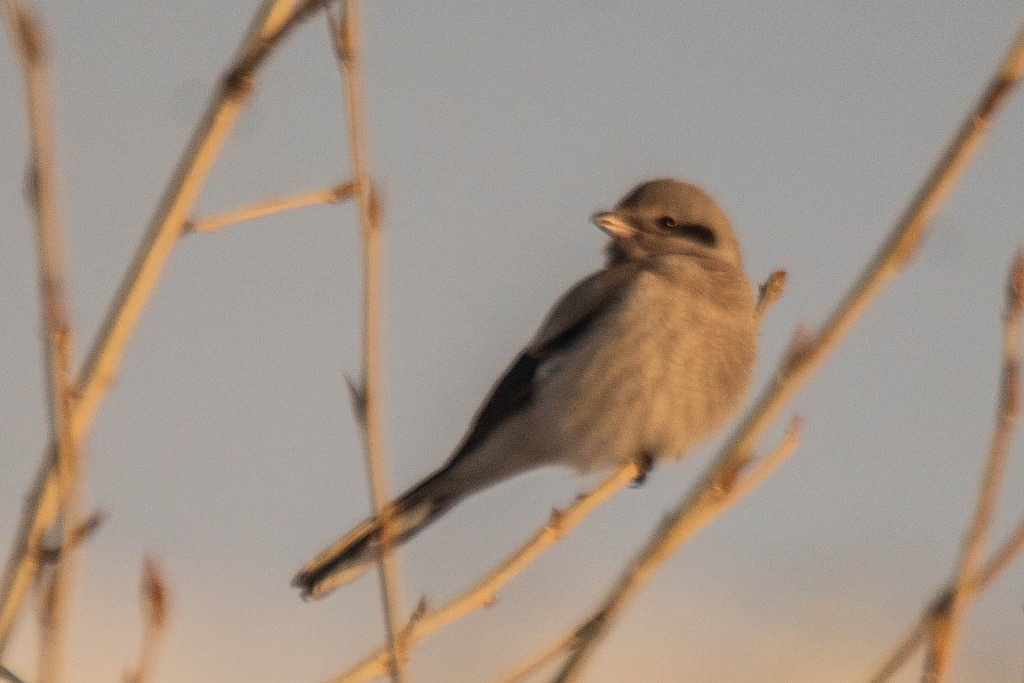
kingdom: Animalia
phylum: Chordata
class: Aves
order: Passeriformes
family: Laniidae
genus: Lanius
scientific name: Lanius borealis
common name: Northern shrike
